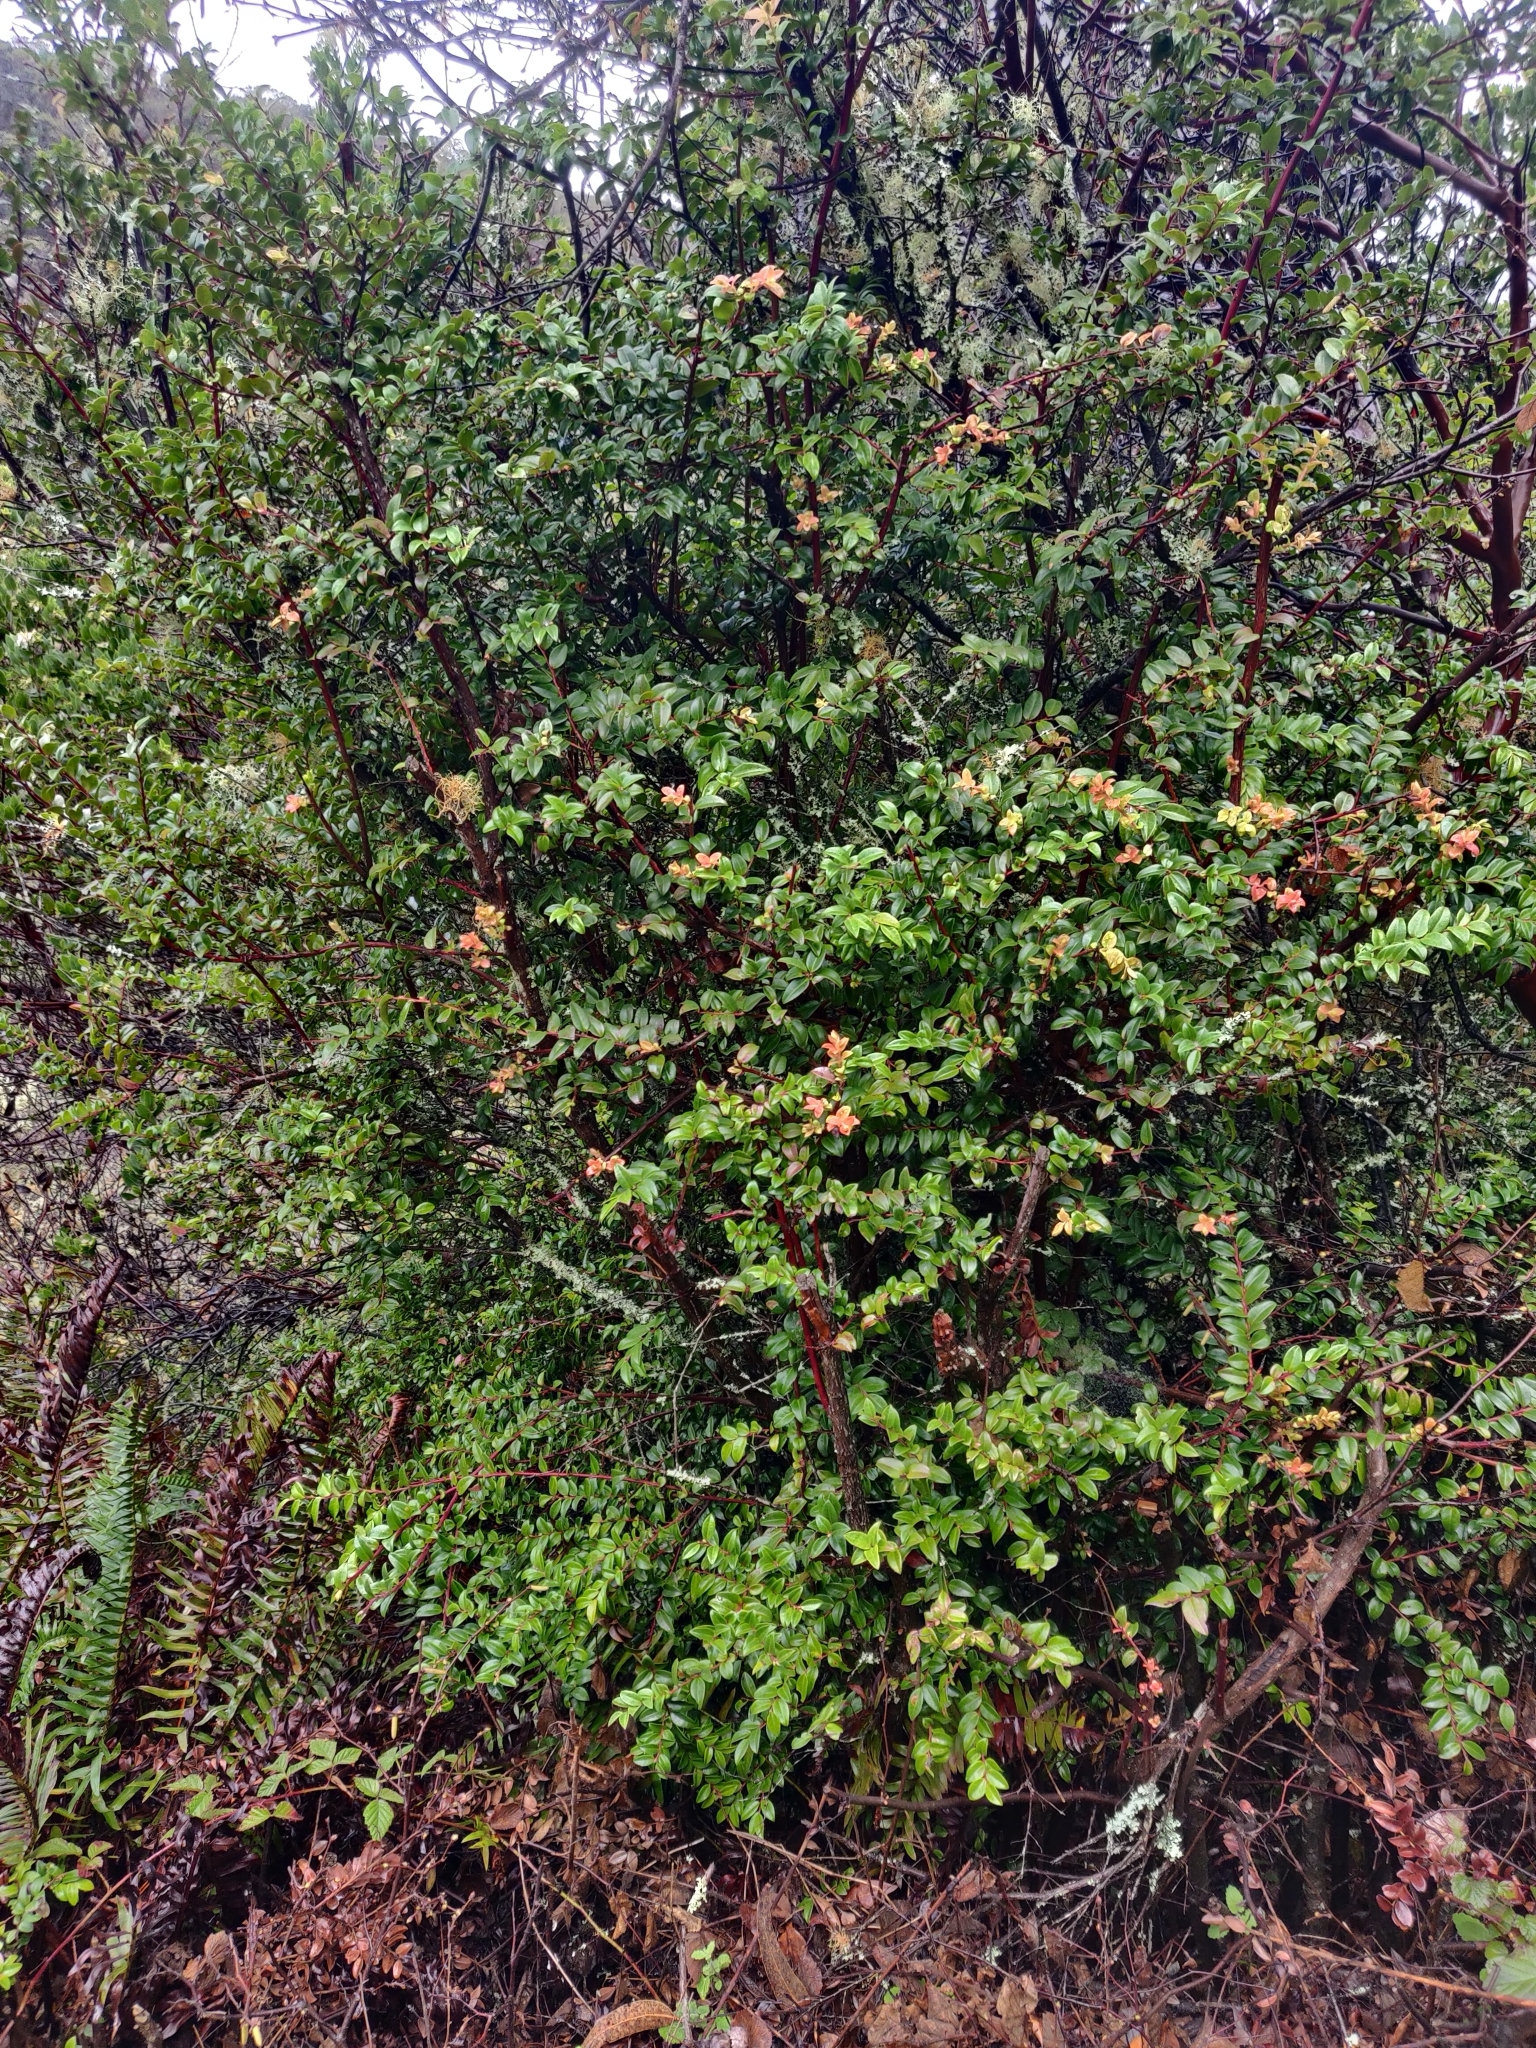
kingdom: Plantae
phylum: Tracheophyta
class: Magnoliopsida
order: Ericales
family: Ericaceae
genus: Vaccinium
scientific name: Vaccinium ovatum
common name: California-huckleberry
